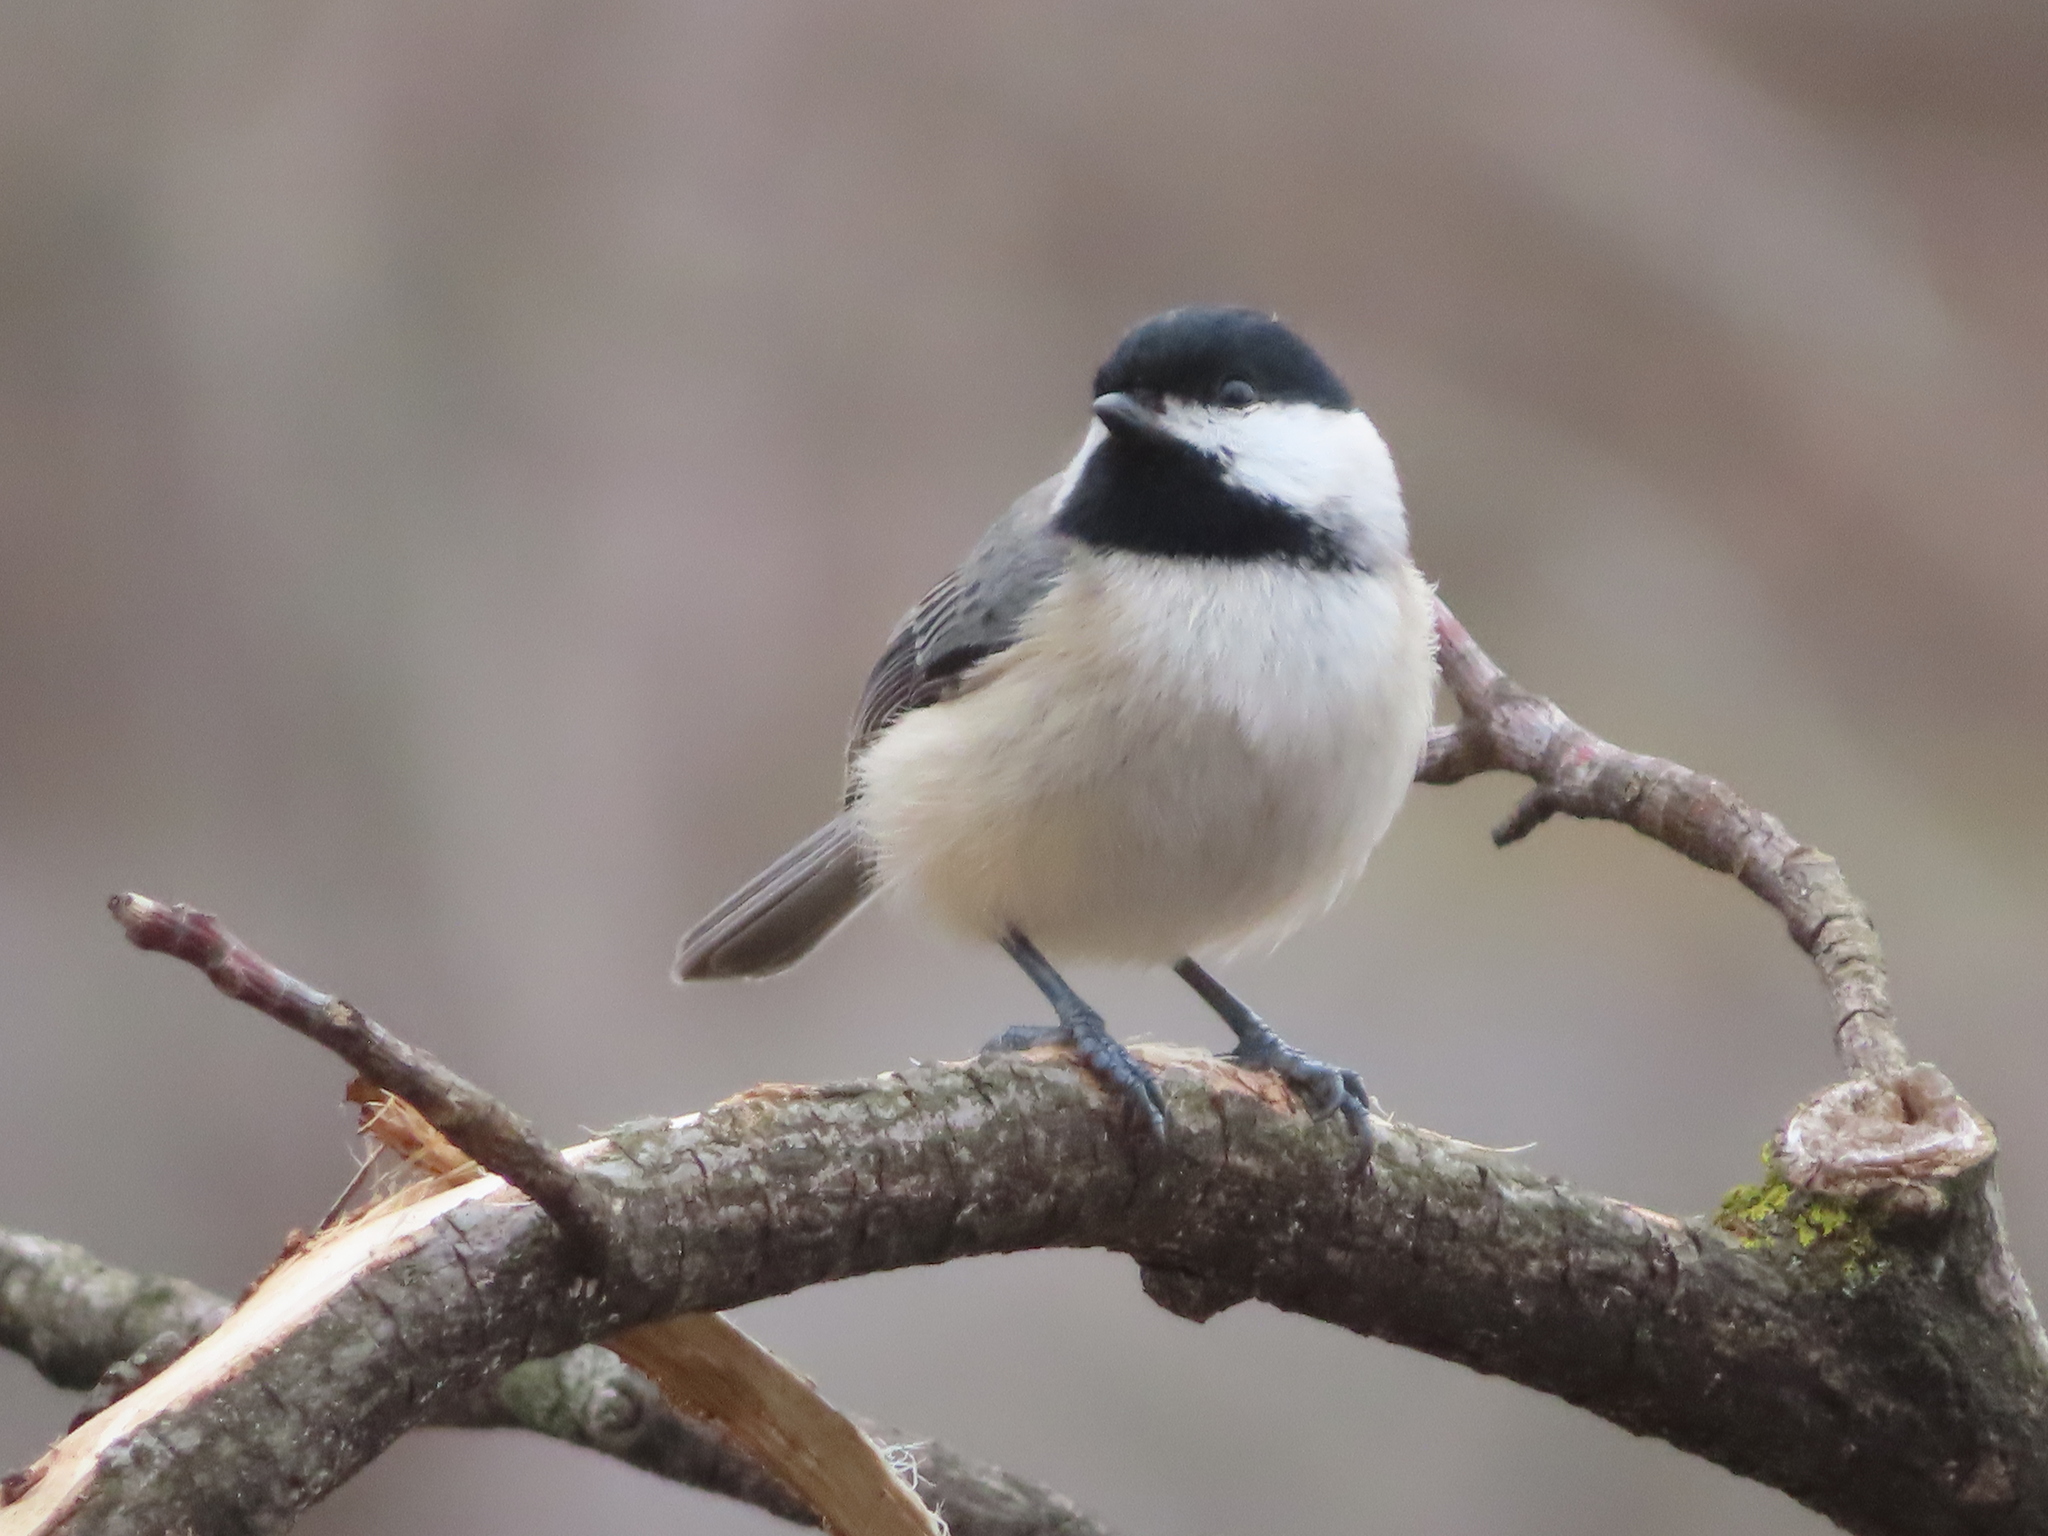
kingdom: Animalia
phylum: Chordata
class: Aves
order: Passeriformes
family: Paridae
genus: Poecile
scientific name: Poecile carolinensis
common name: Carolina chickadee
